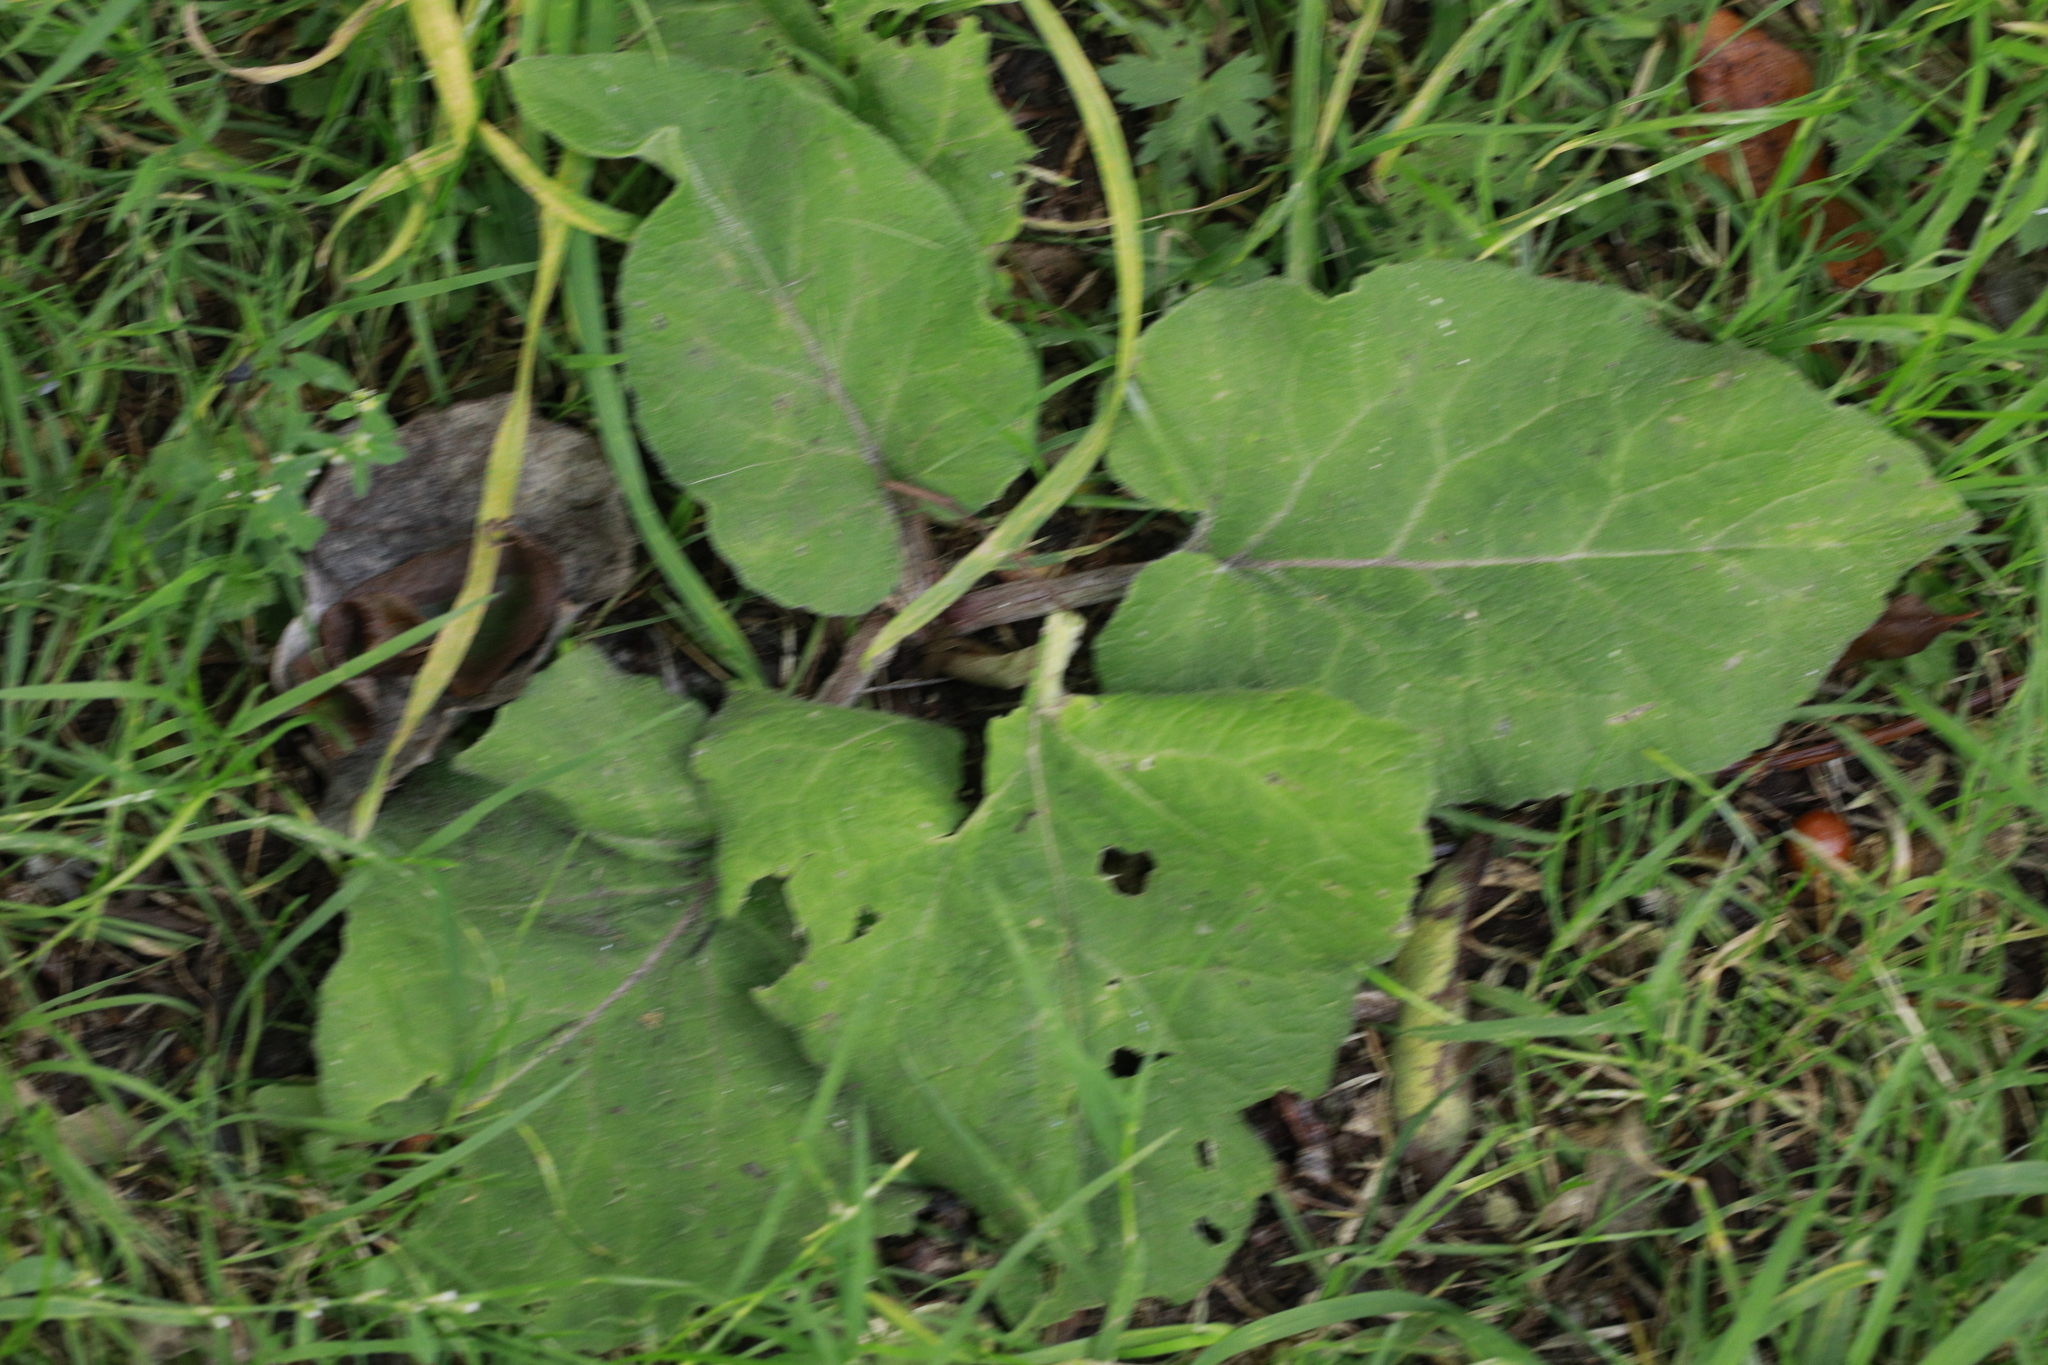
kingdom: Plantae
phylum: Tracheophyta
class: Magnoliopsida
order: Asterales
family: Asteraceae
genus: Arctium
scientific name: Arctium minus
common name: Lesser burdock
